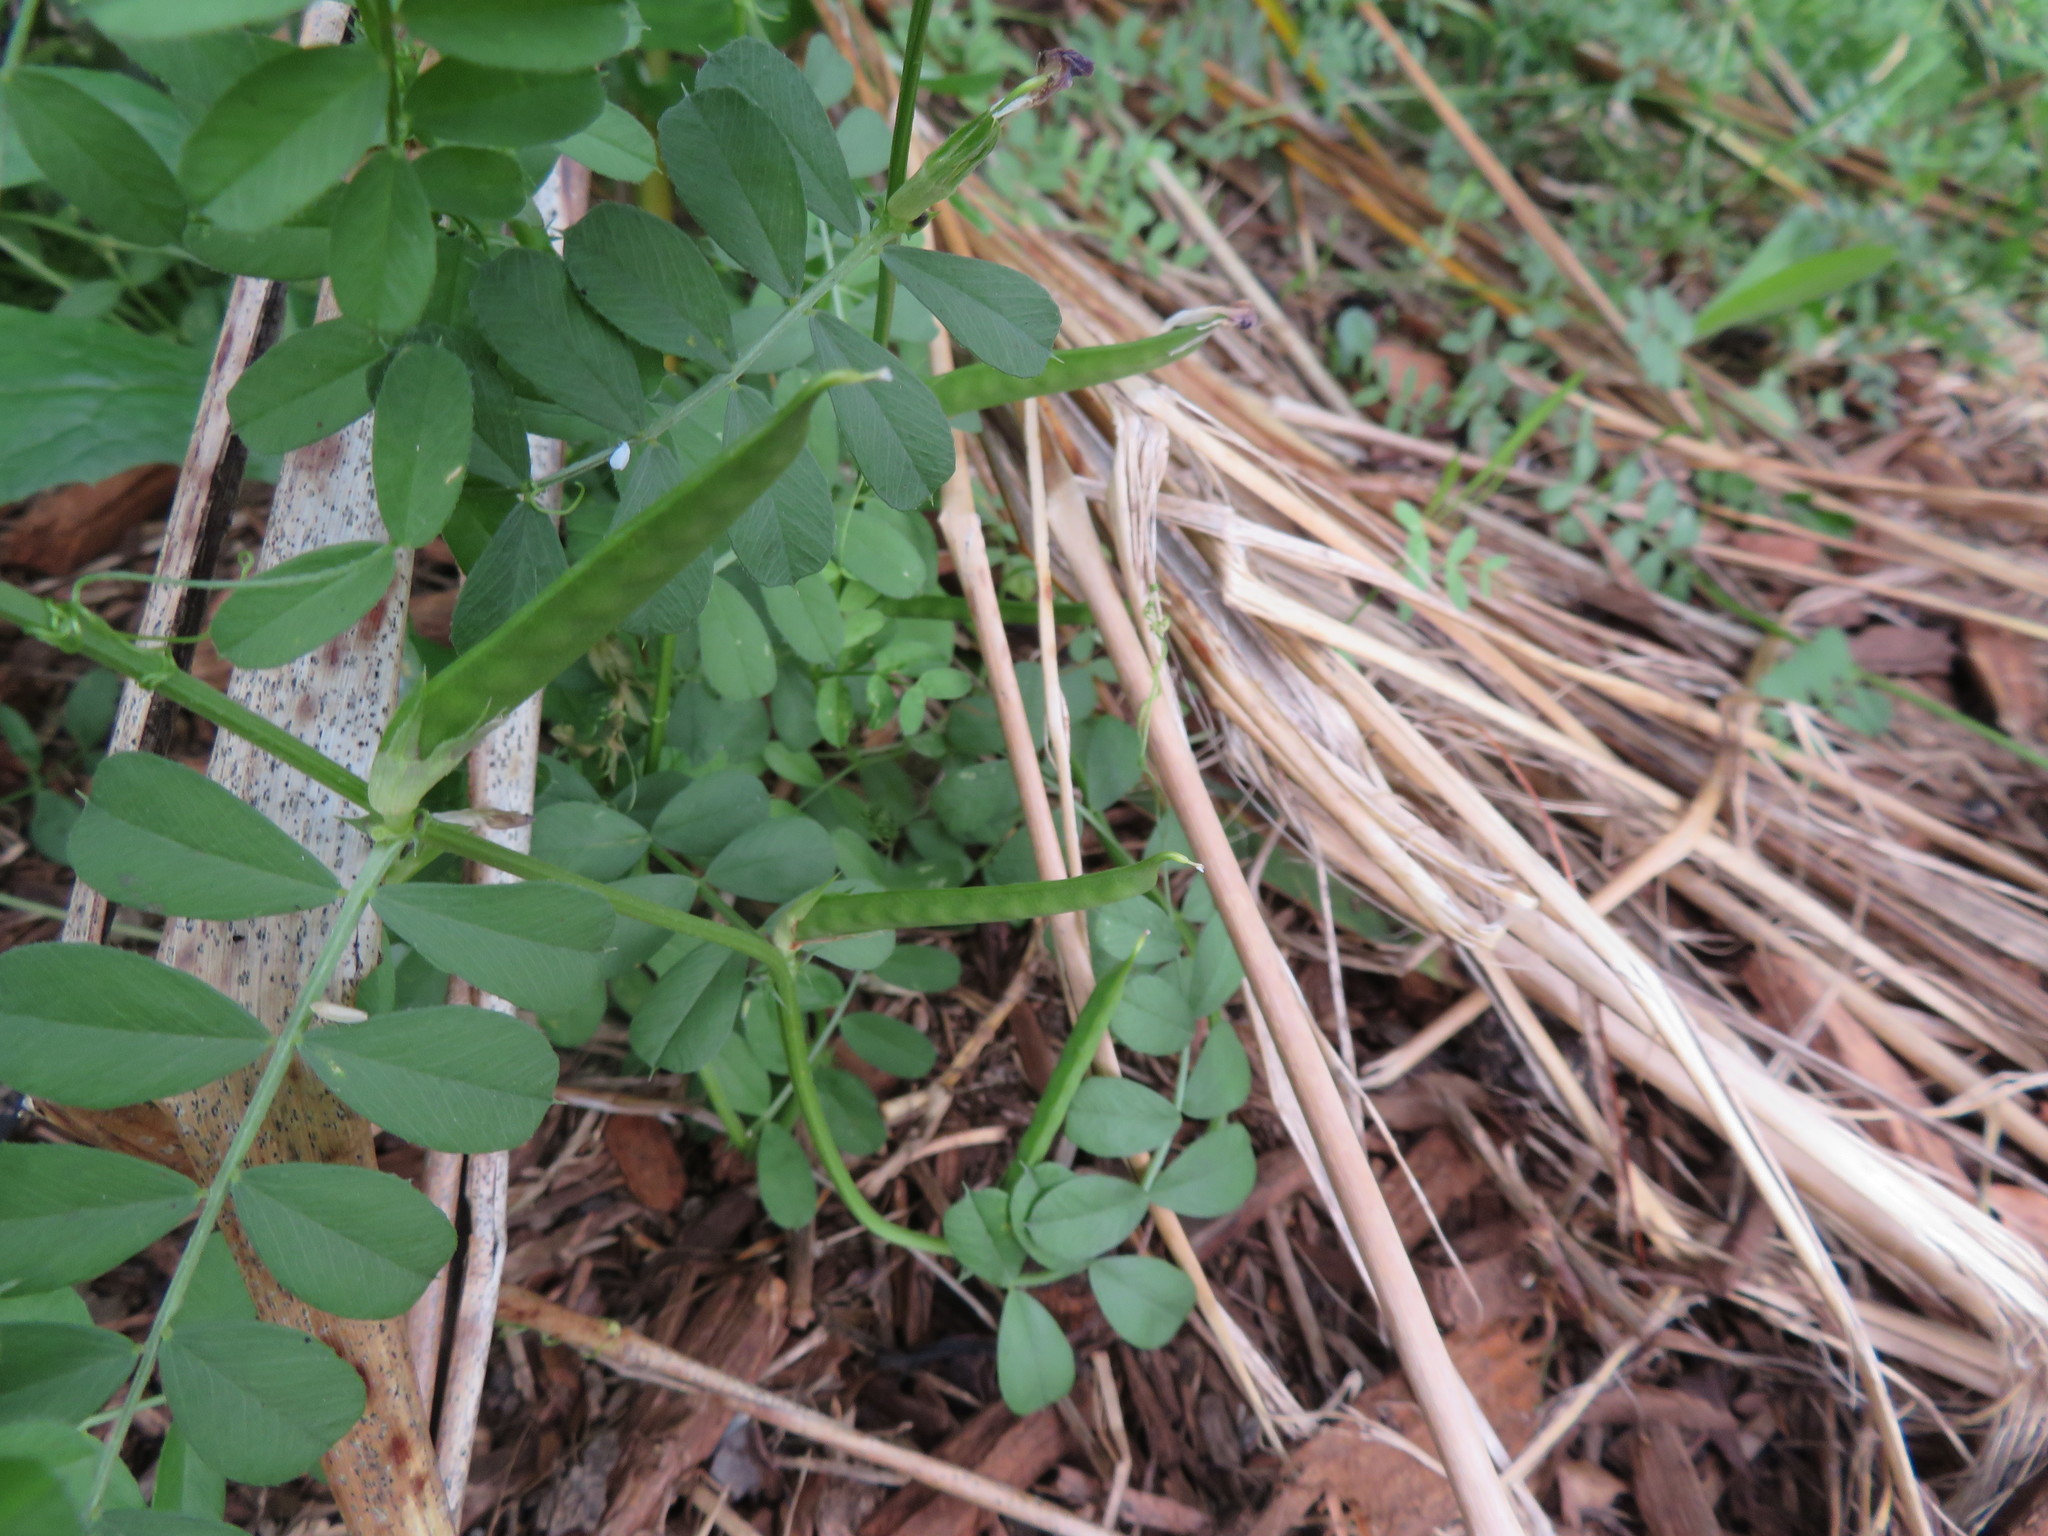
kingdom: Plantae
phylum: Tracheophyta
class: Magnoliopsida
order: Fabales
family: Fabaceae
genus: Vicia
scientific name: Vicia sativa
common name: Garden vetch
